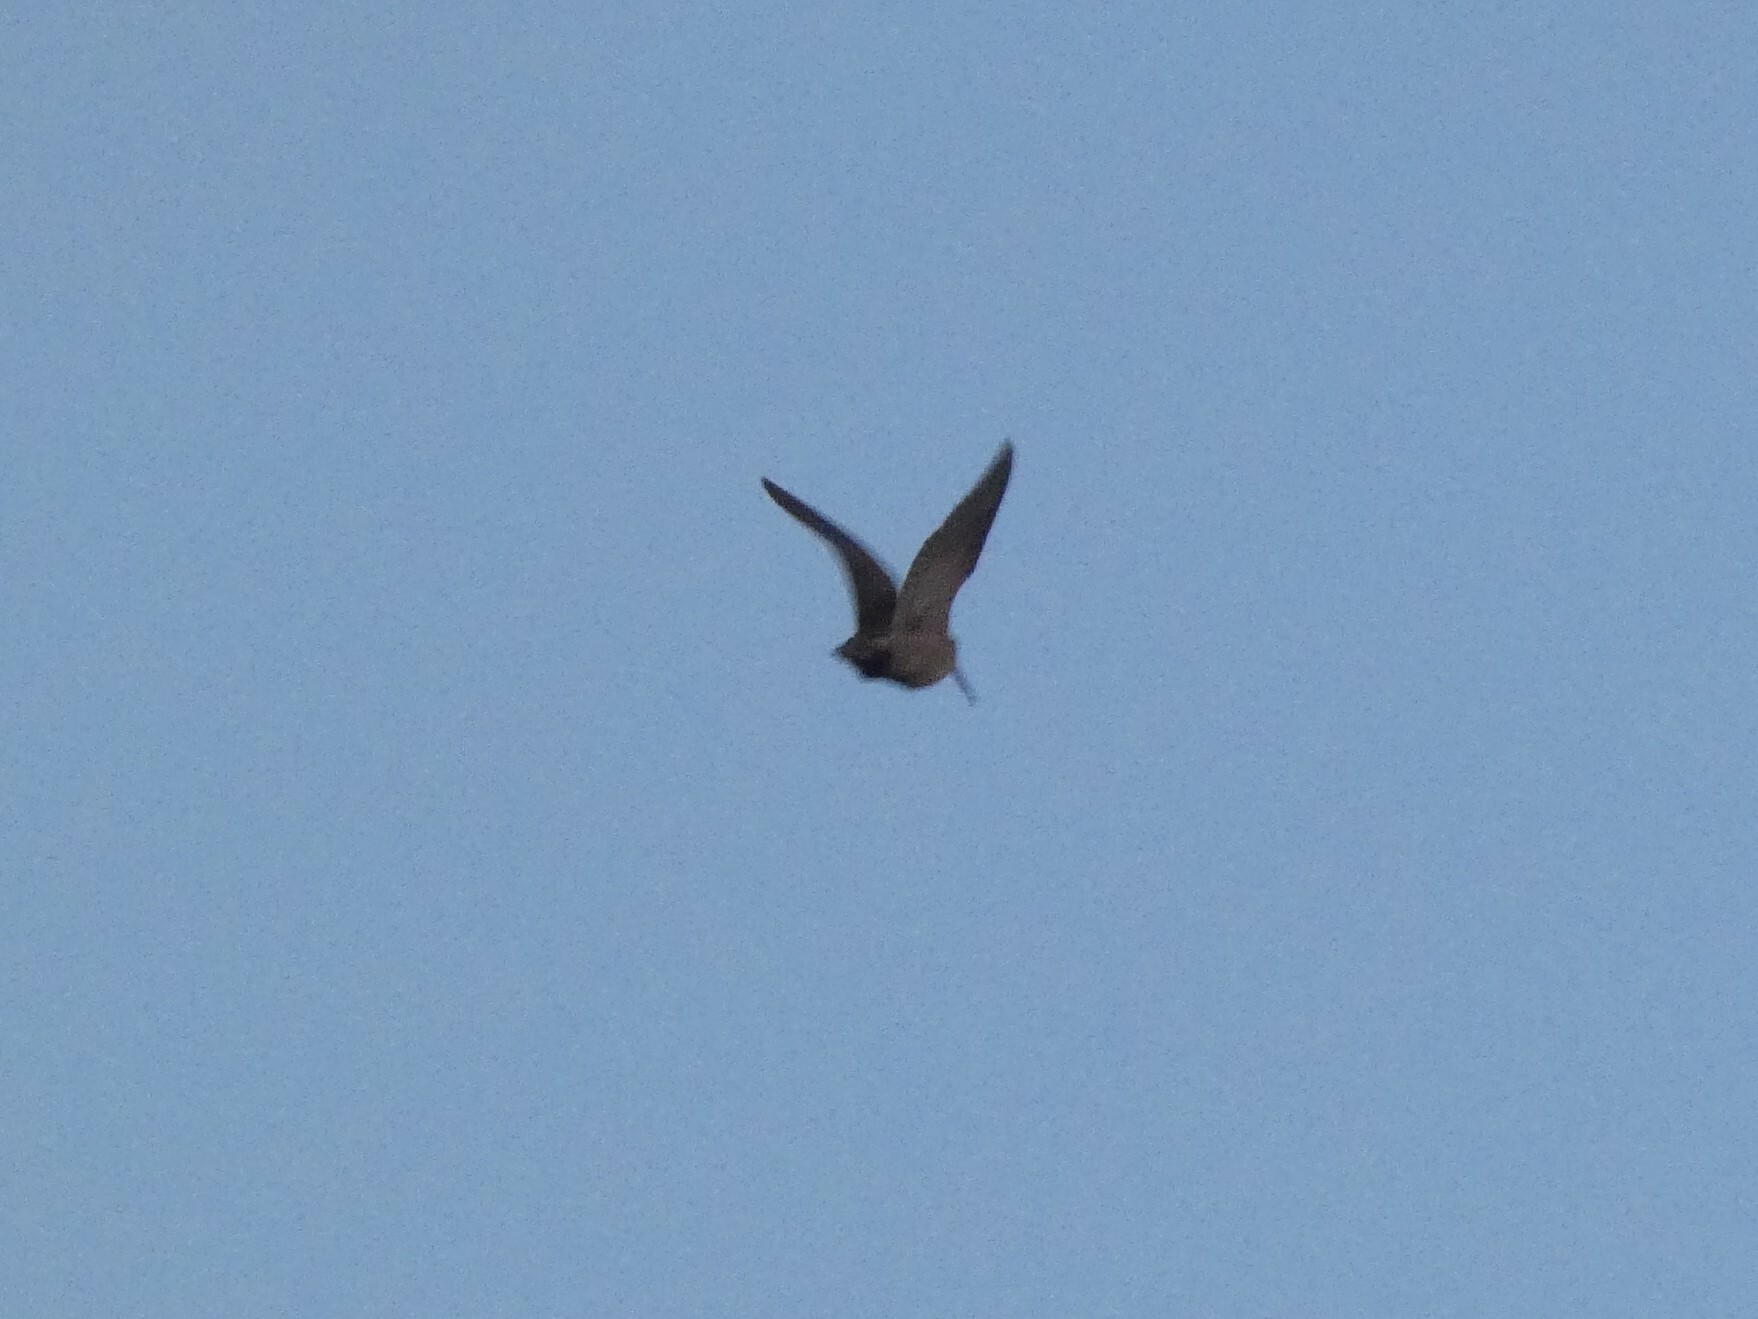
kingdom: Animalia
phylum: Chordata
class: Aves
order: Charadriiformes
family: Scolopacidae
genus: Scolopax
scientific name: Scolopax rusticola
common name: Eurasian woodcock
